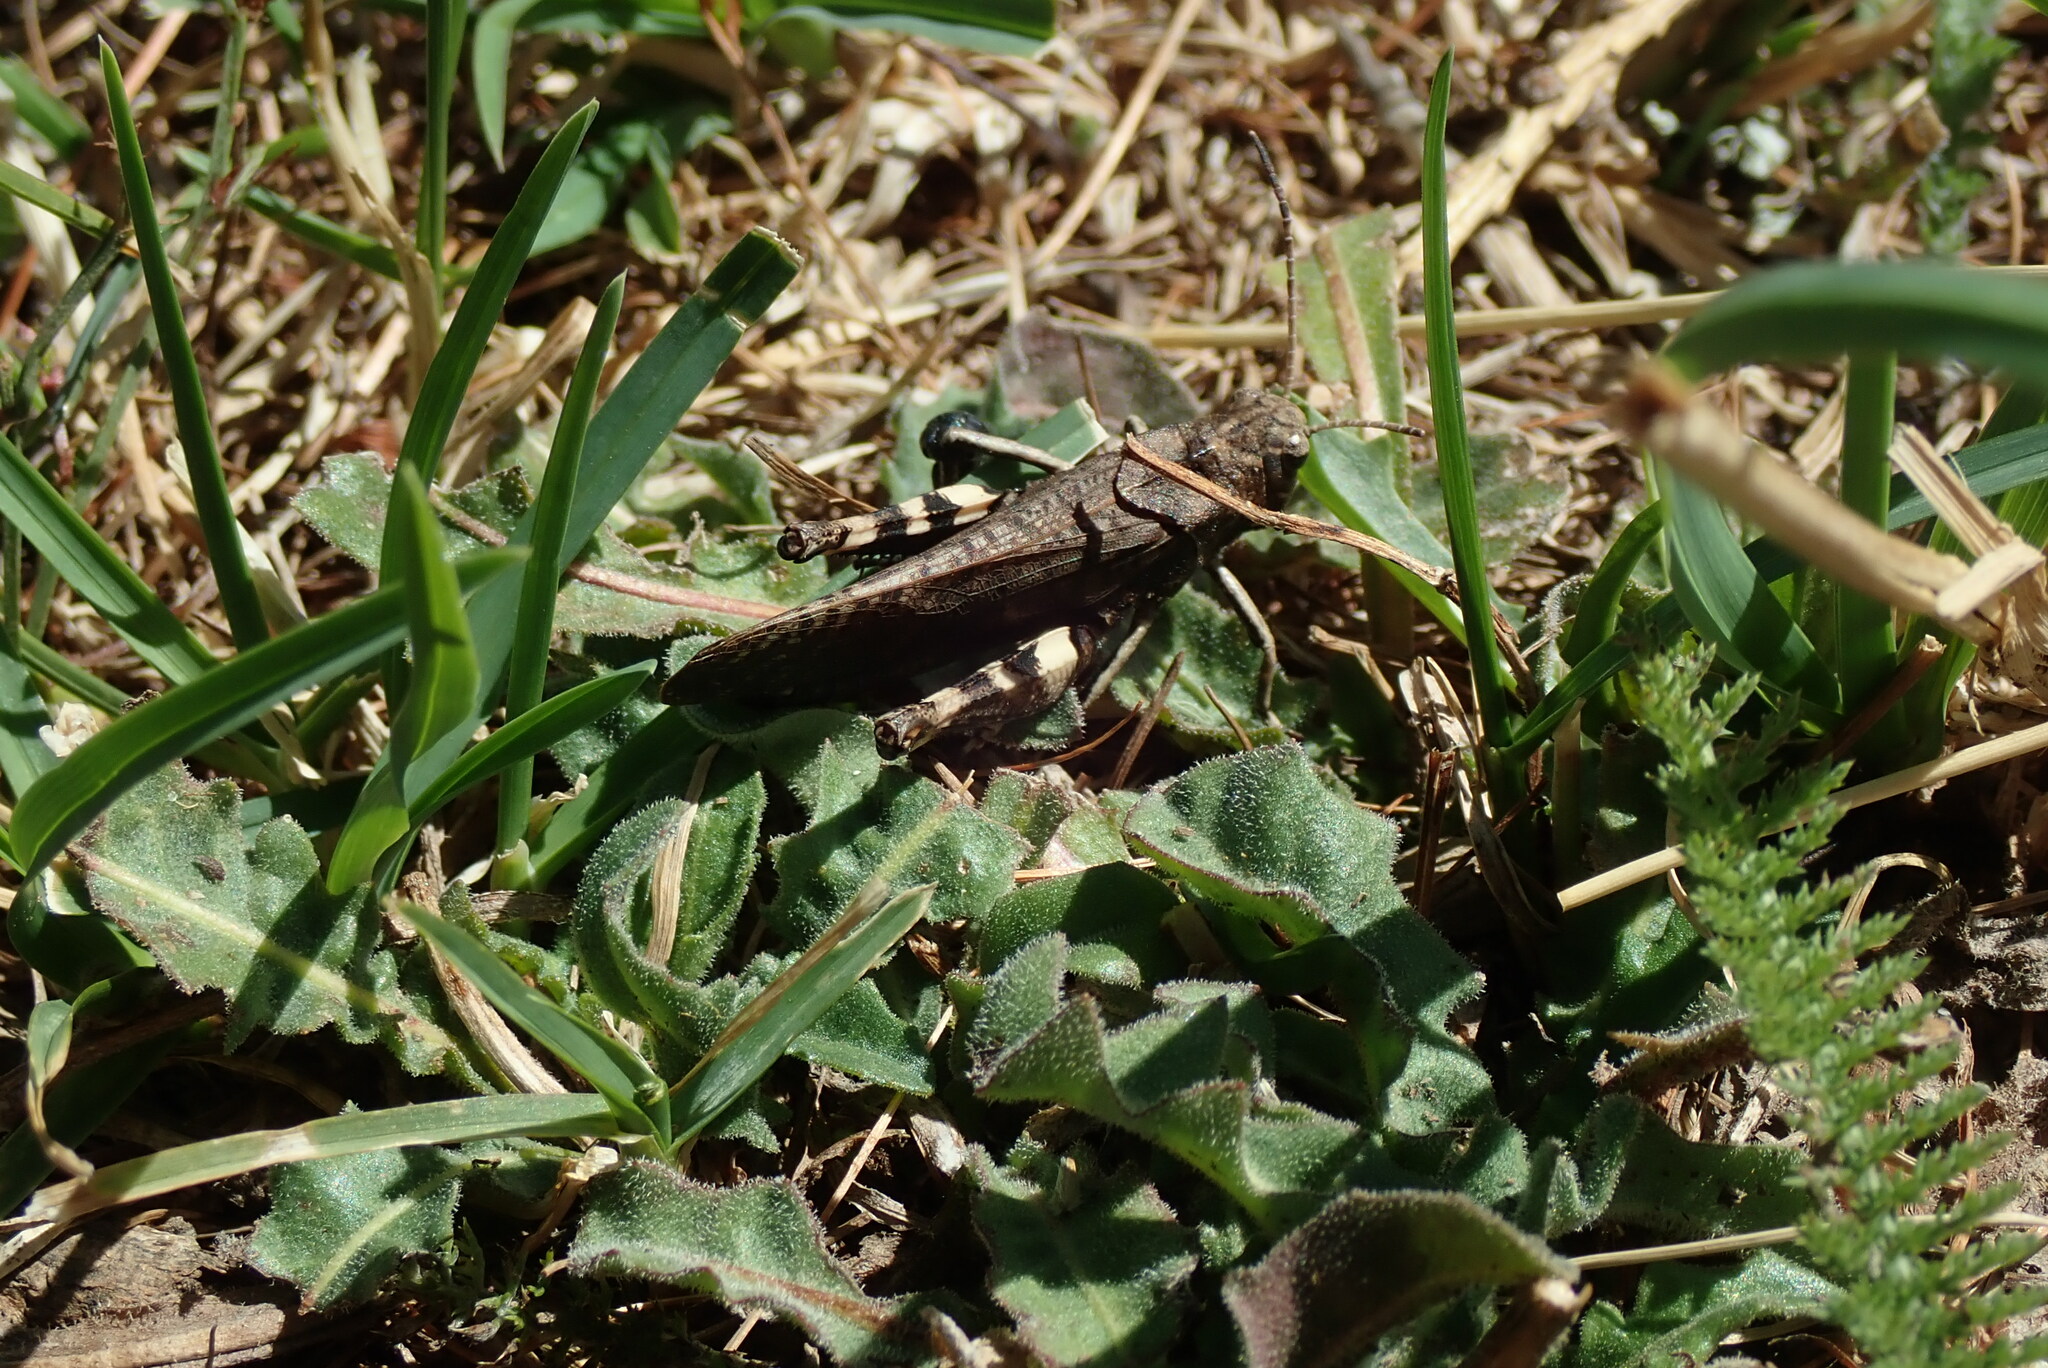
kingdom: Animalia
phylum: Arthropoda
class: Insecta
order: Orthoptera
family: Acrididae
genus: Psophus
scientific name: Psophus stridulus
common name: Rattle grasshopper
